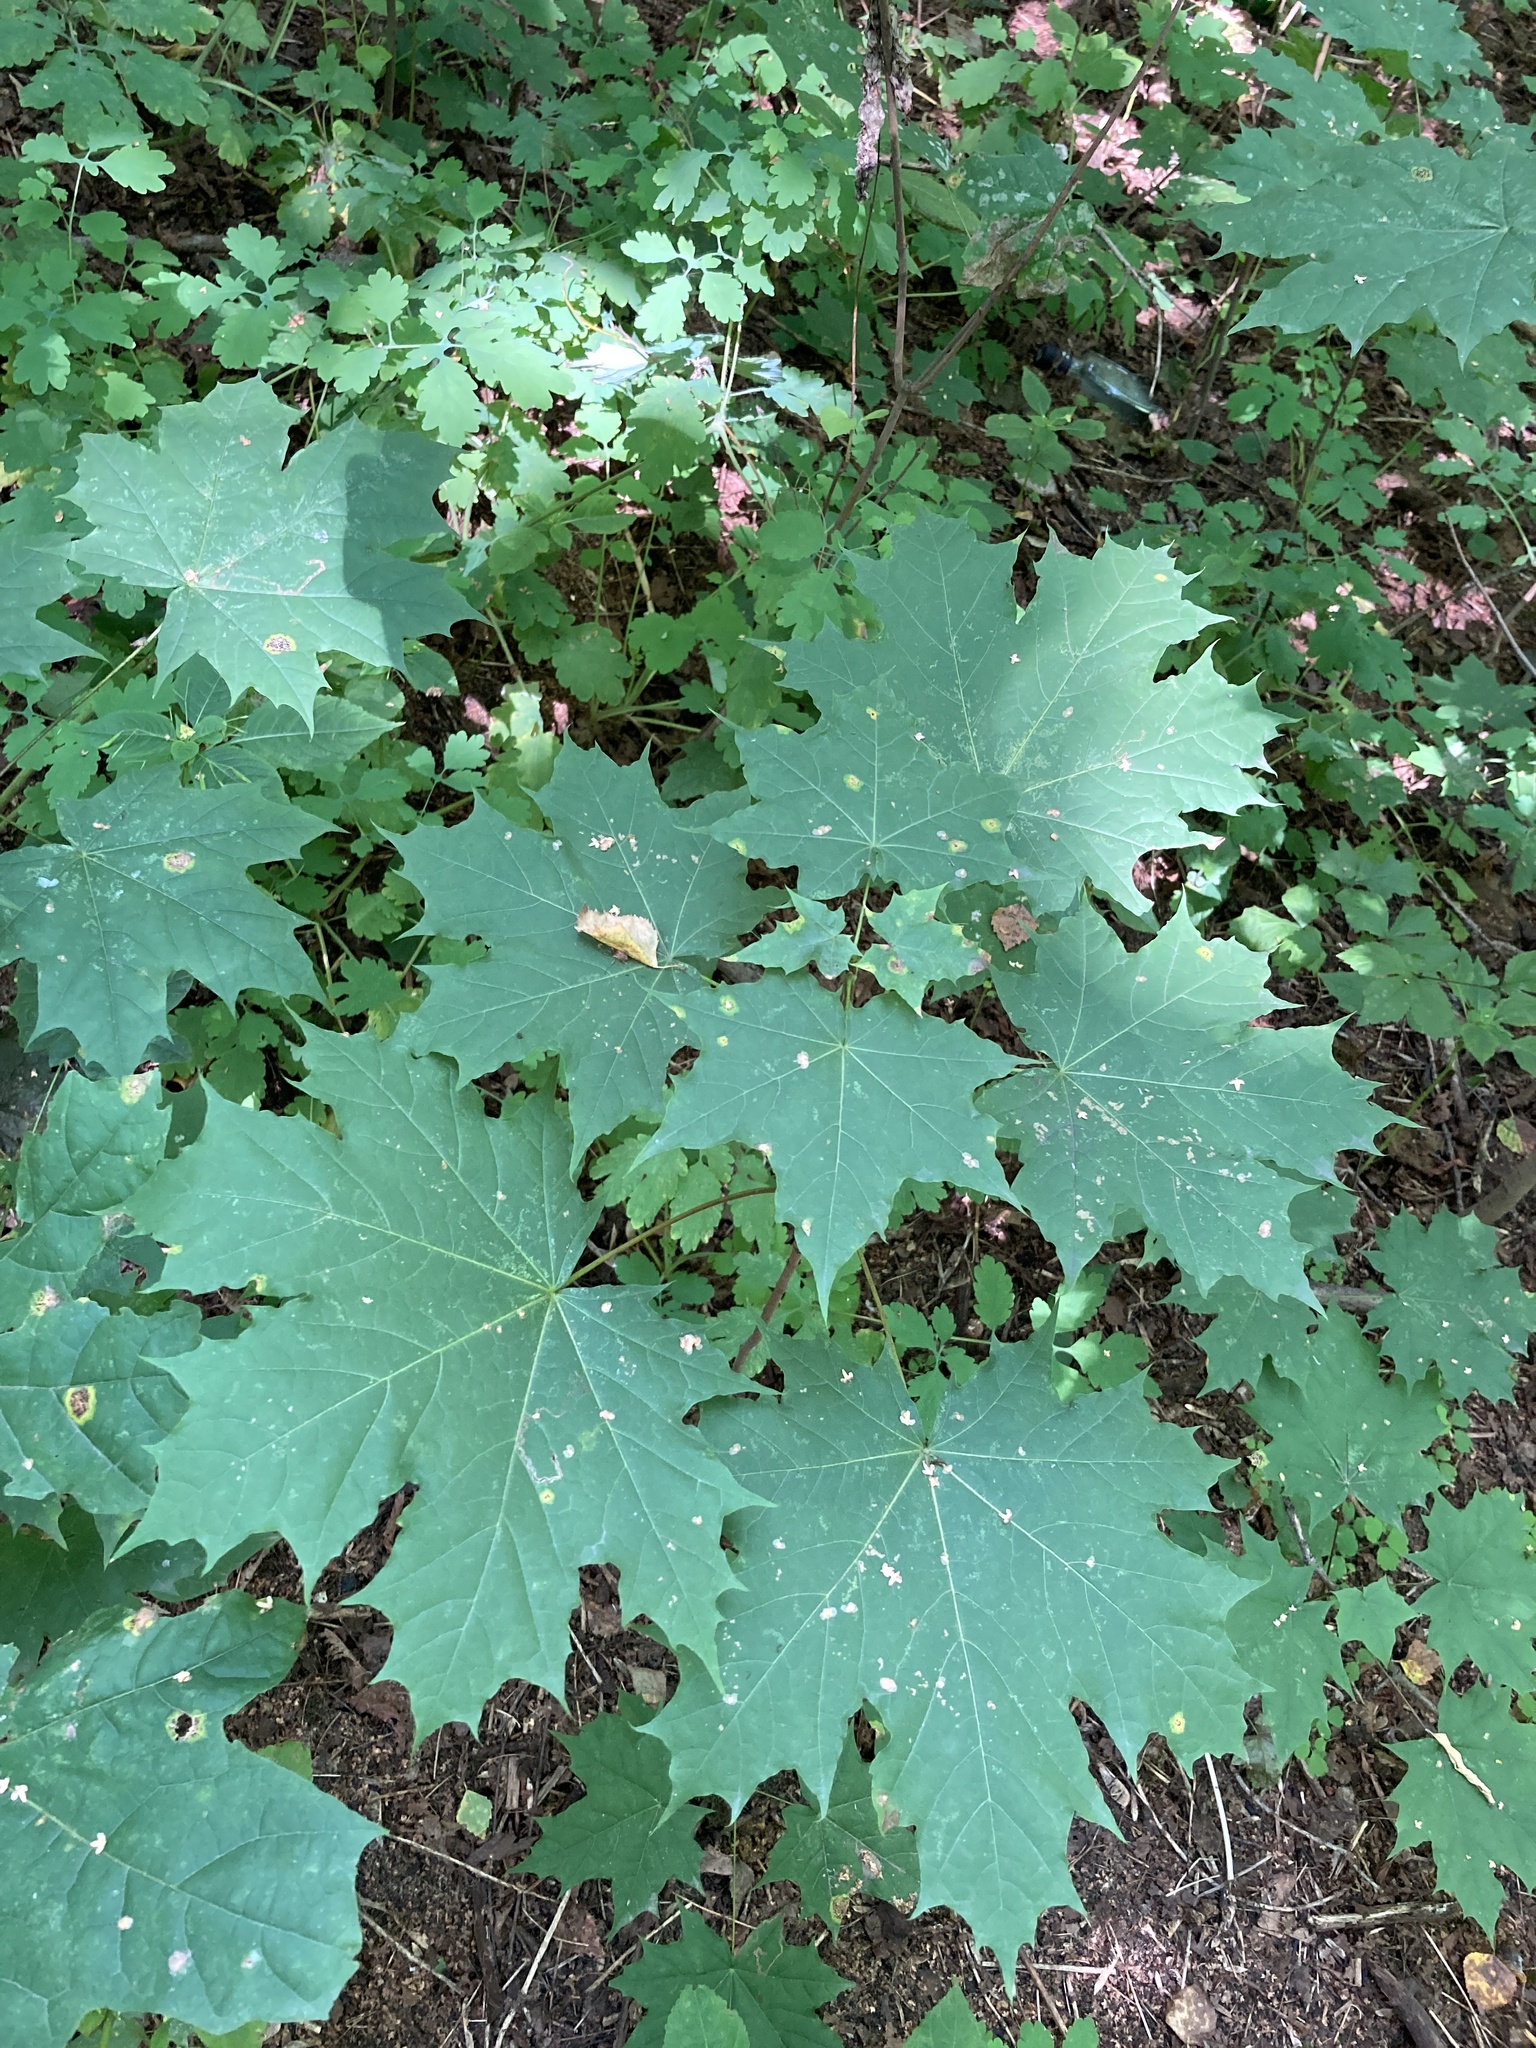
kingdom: Plantae
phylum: Tracheophyta
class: Magnoliopsida
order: Sapindales
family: Sapindaceae
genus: Acer
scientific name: Acer platanoides
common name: Norway maple
